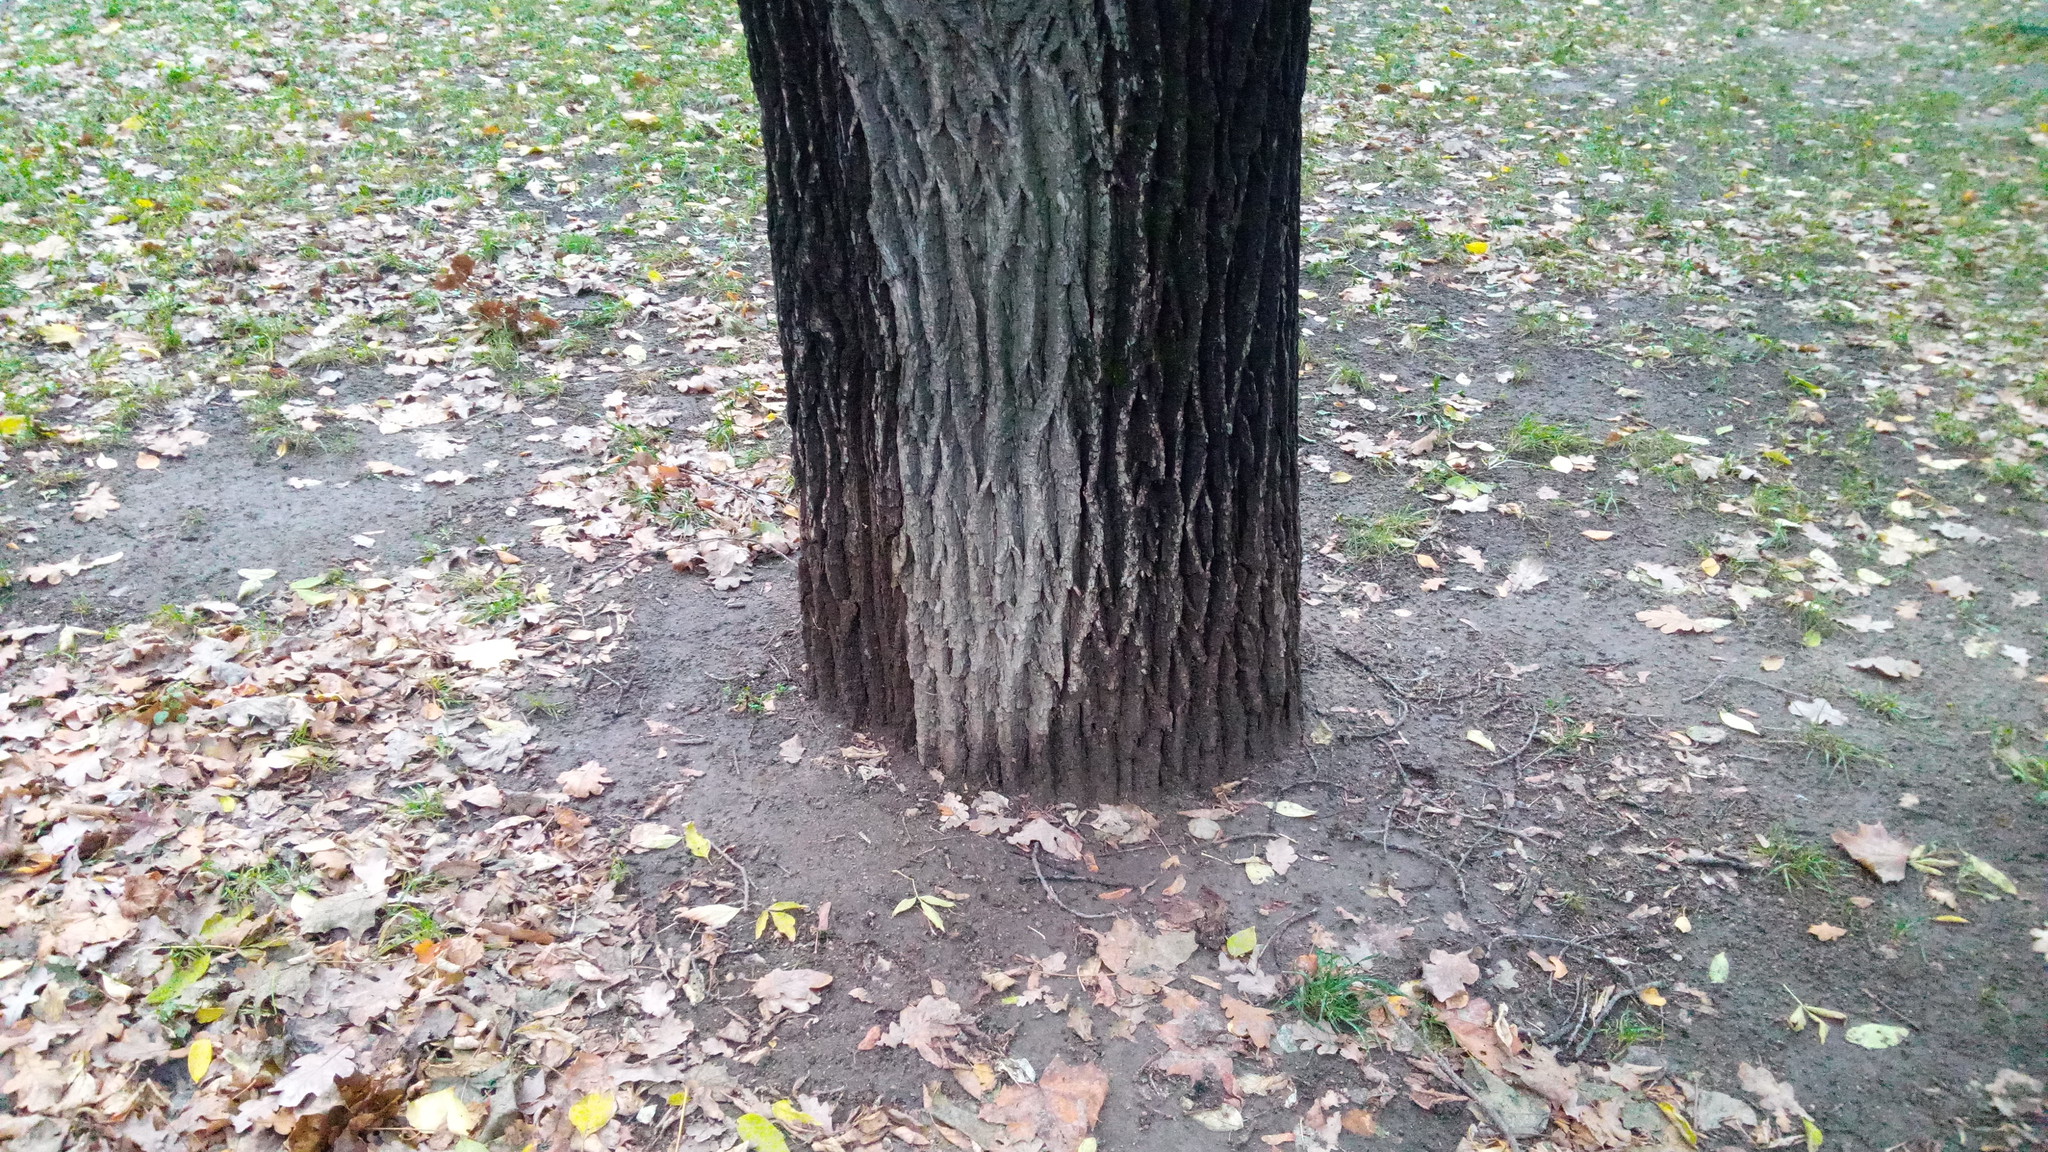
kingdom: Plantae
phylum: Tracheophyta
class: Magnoliopsida
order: Fagales
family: Fagaceae
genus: Quercus
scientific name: Quercus robur
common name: Pedunculate oak
